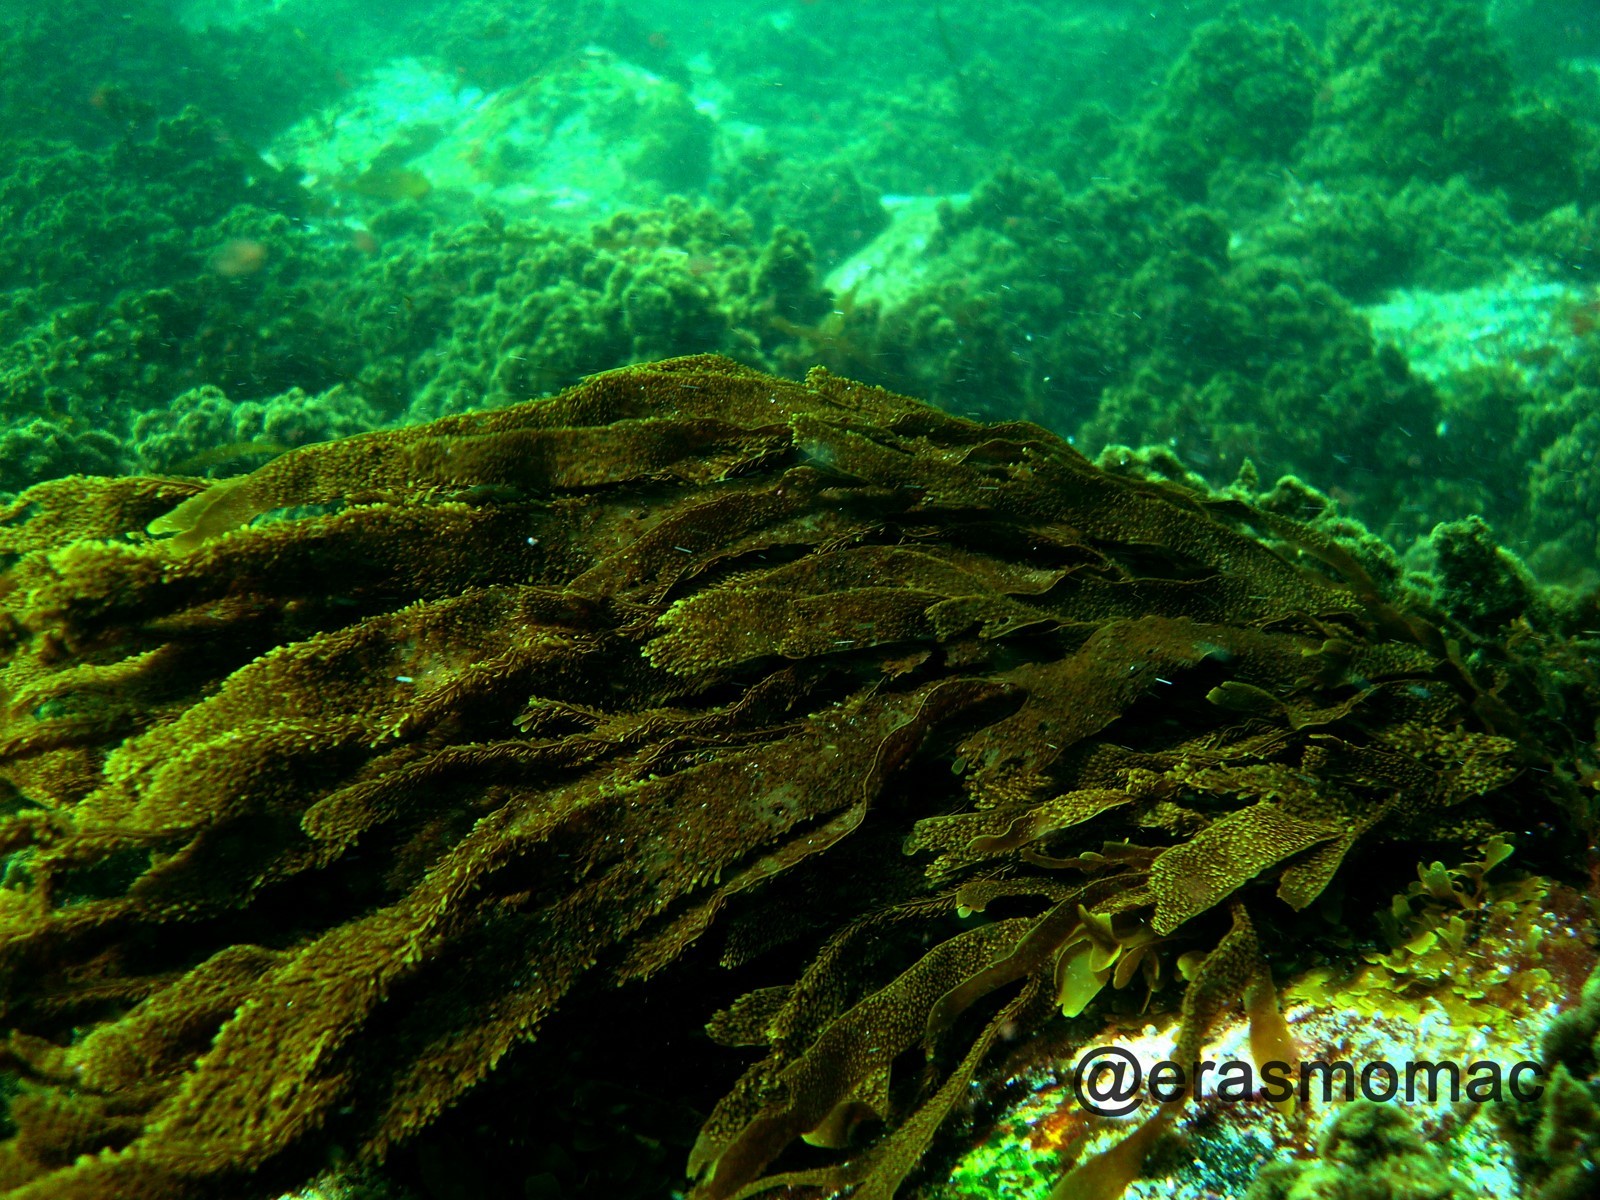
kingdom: Chromista
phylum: Ochrophyta
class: Phaeophyceae
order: Dictyotales
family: Dictyotaceae
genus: Dictyota
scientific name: Dictyota kunthii
